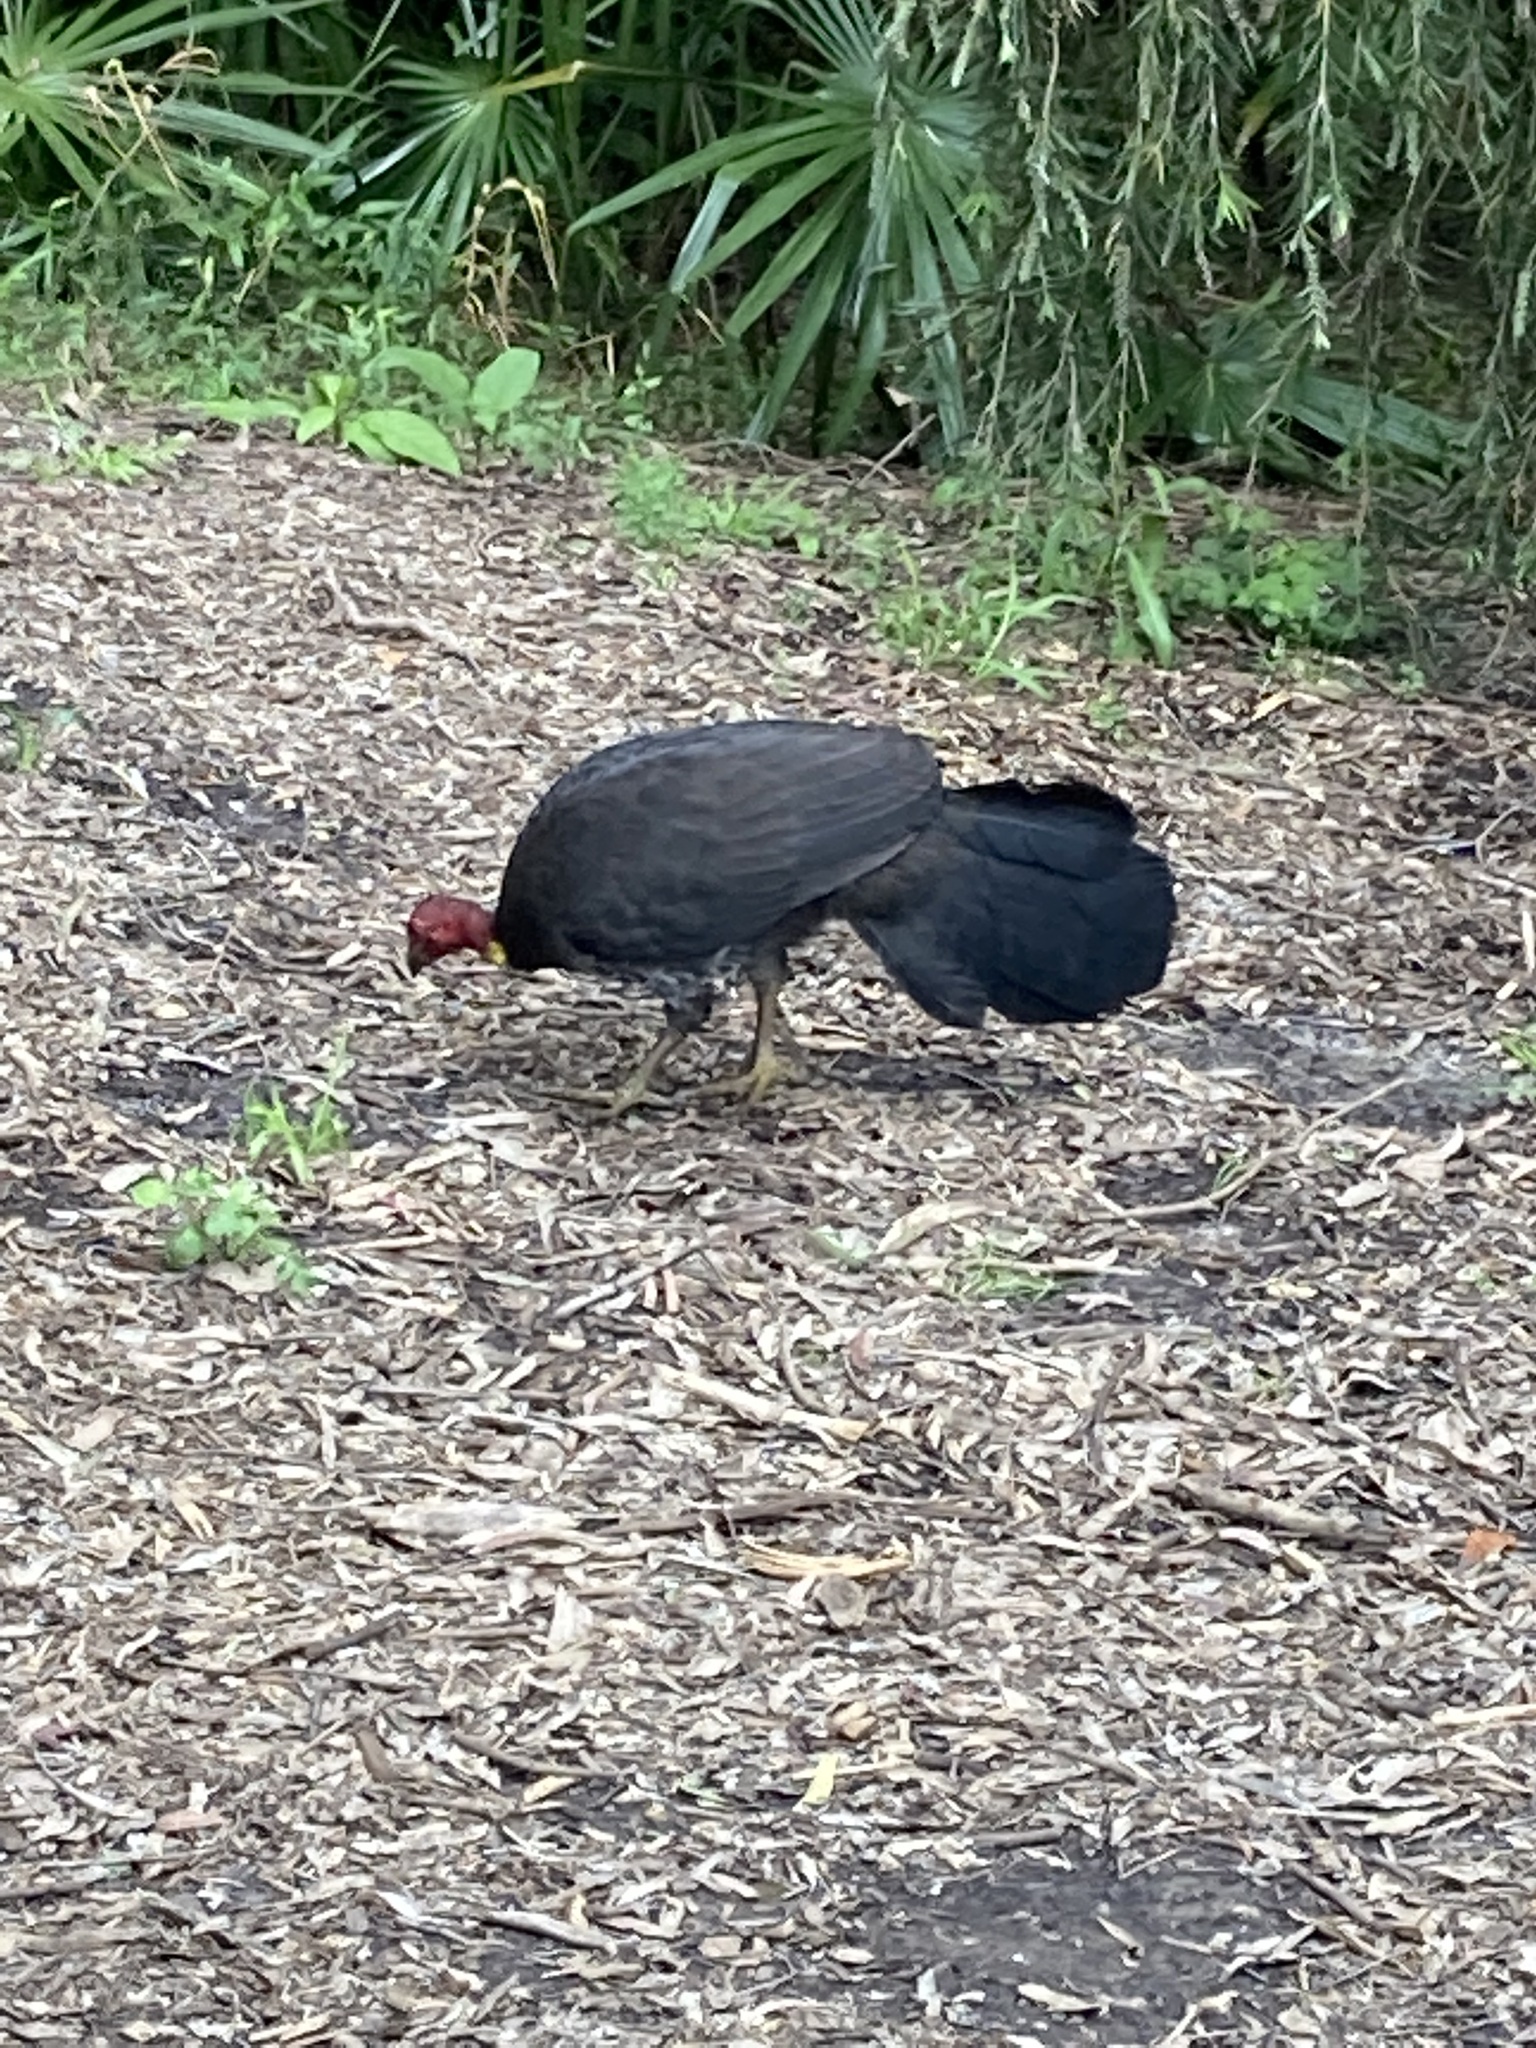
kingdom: Animalia
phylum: Chordata
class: Aves
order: Galliformes
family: Megapodiidae
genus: Alectura
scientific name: Alectura lathami
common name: Australian brushturkey
